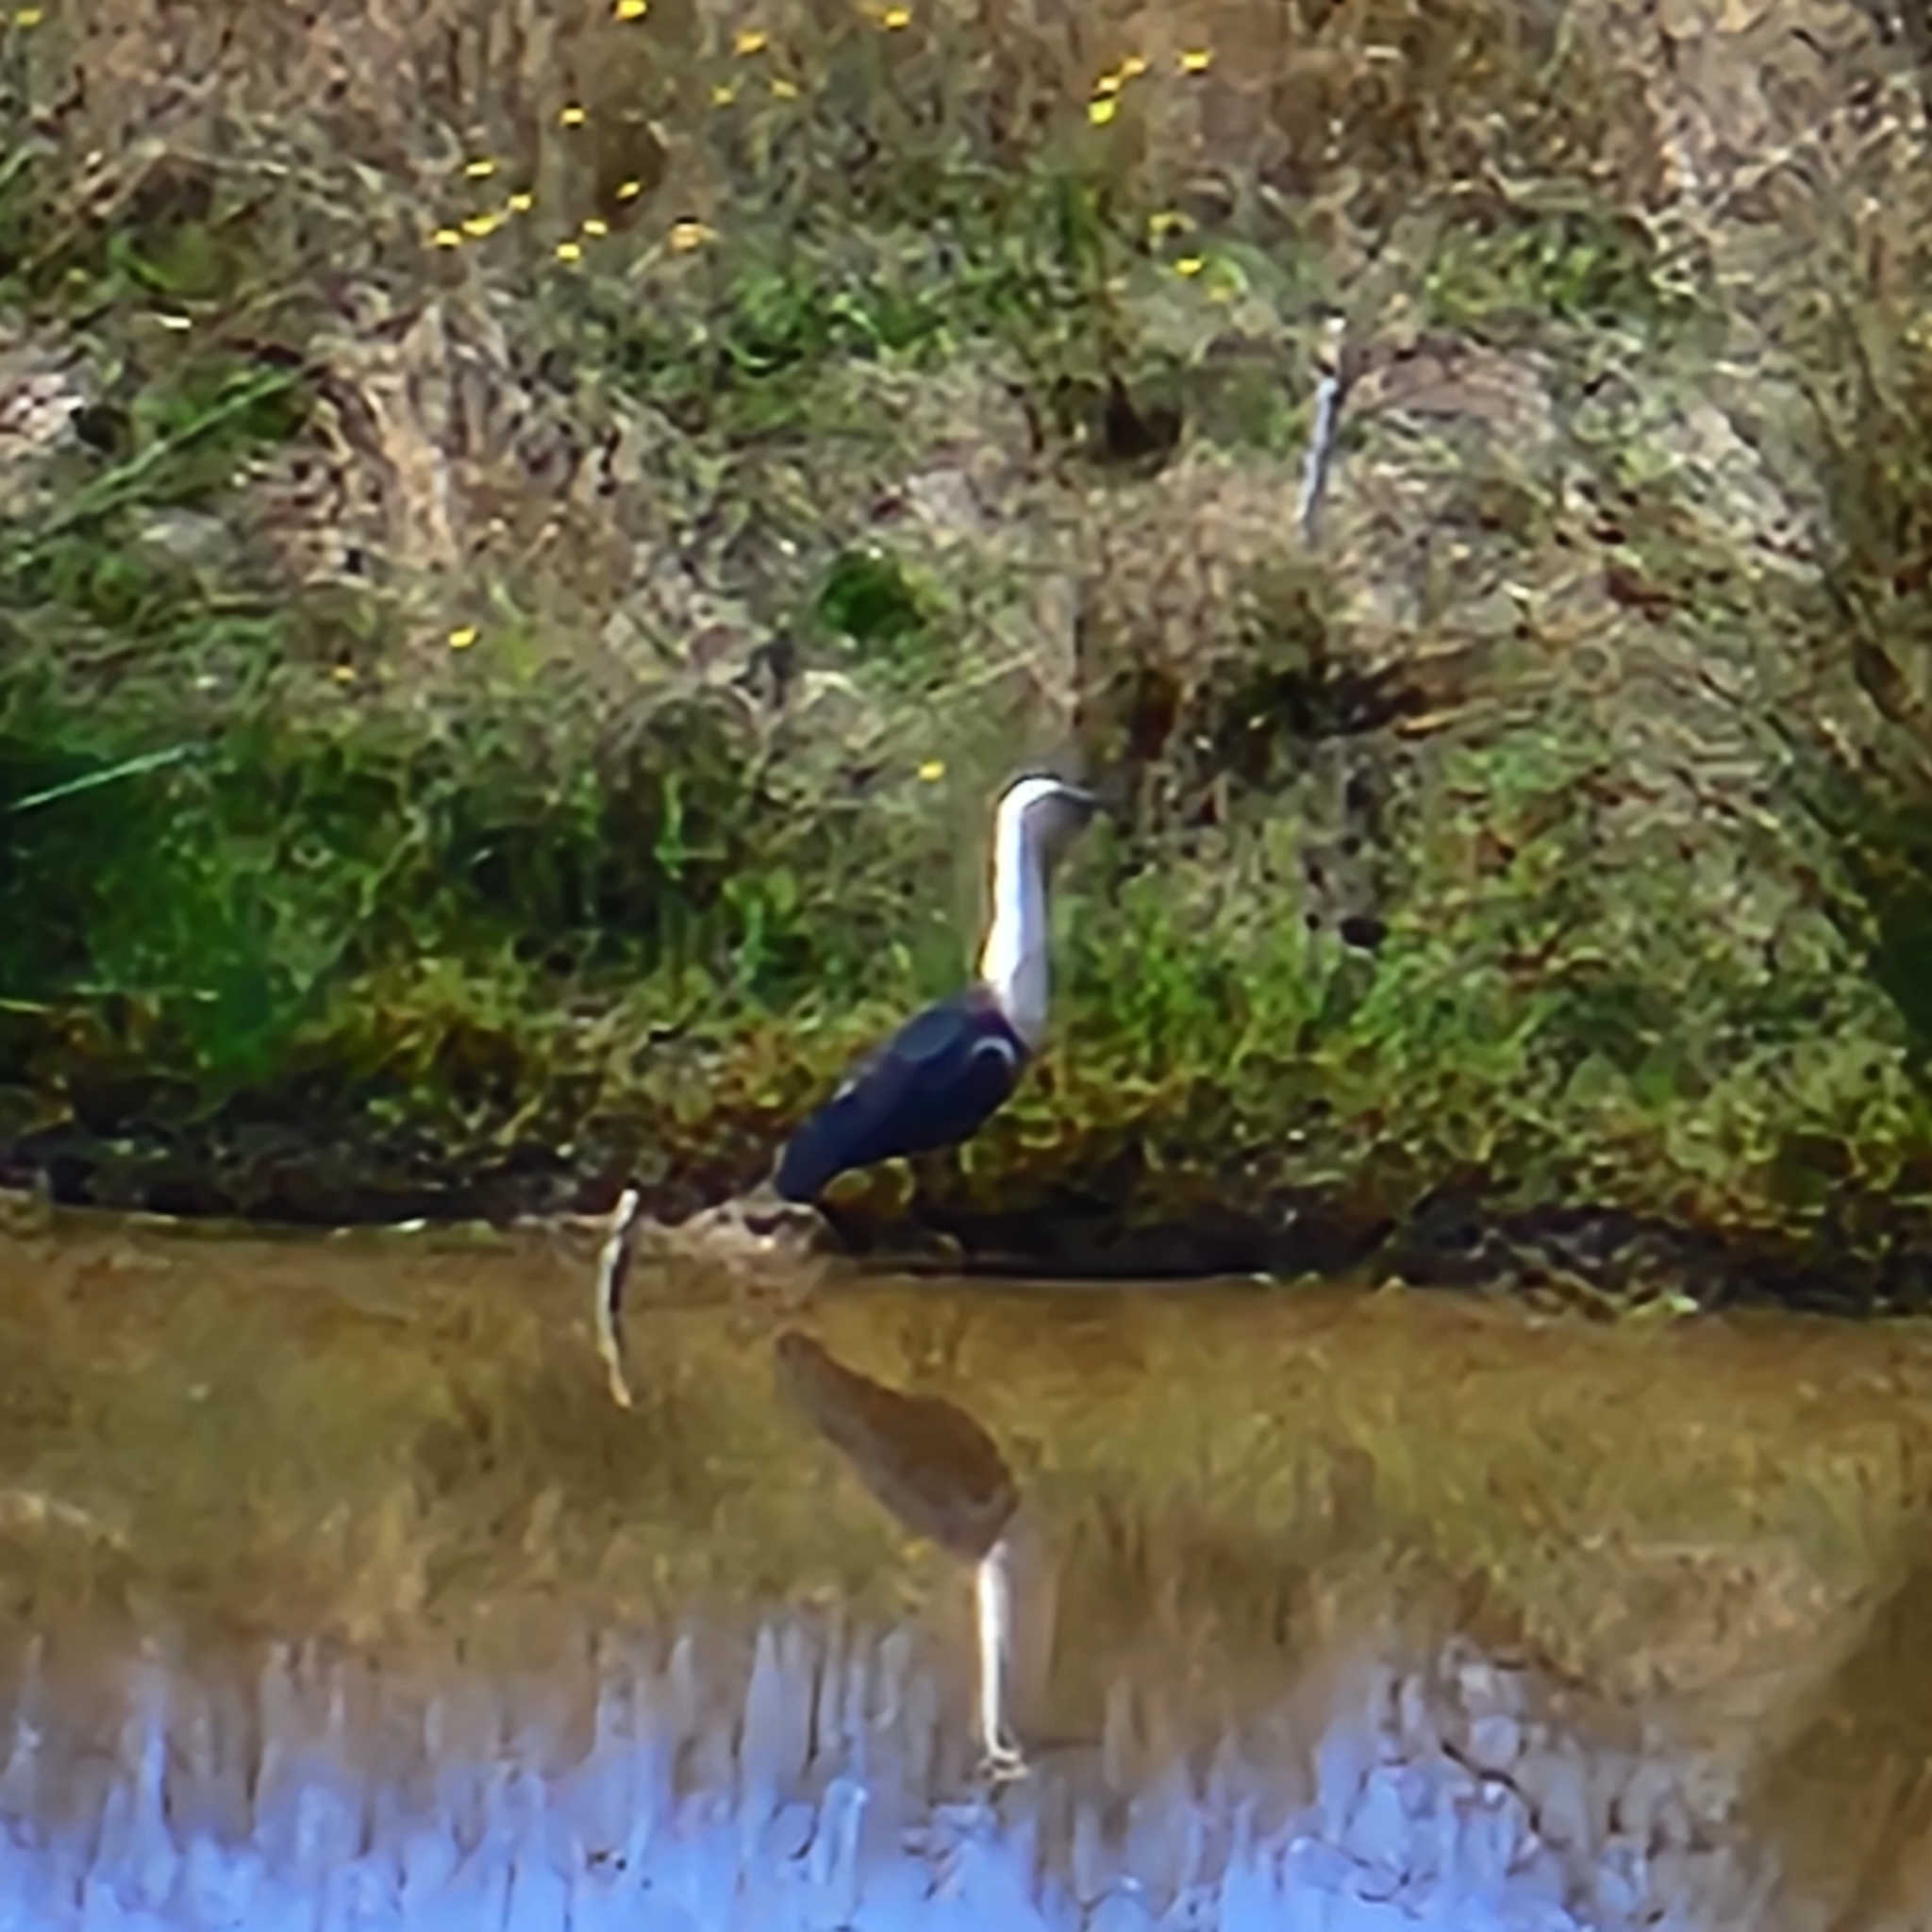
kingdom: Animalia
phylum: Chordata
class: Aves
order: Pelecaniformes
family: Ardeidae
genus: Ardea
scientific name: Ardea pacifica
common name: White-necked heron
